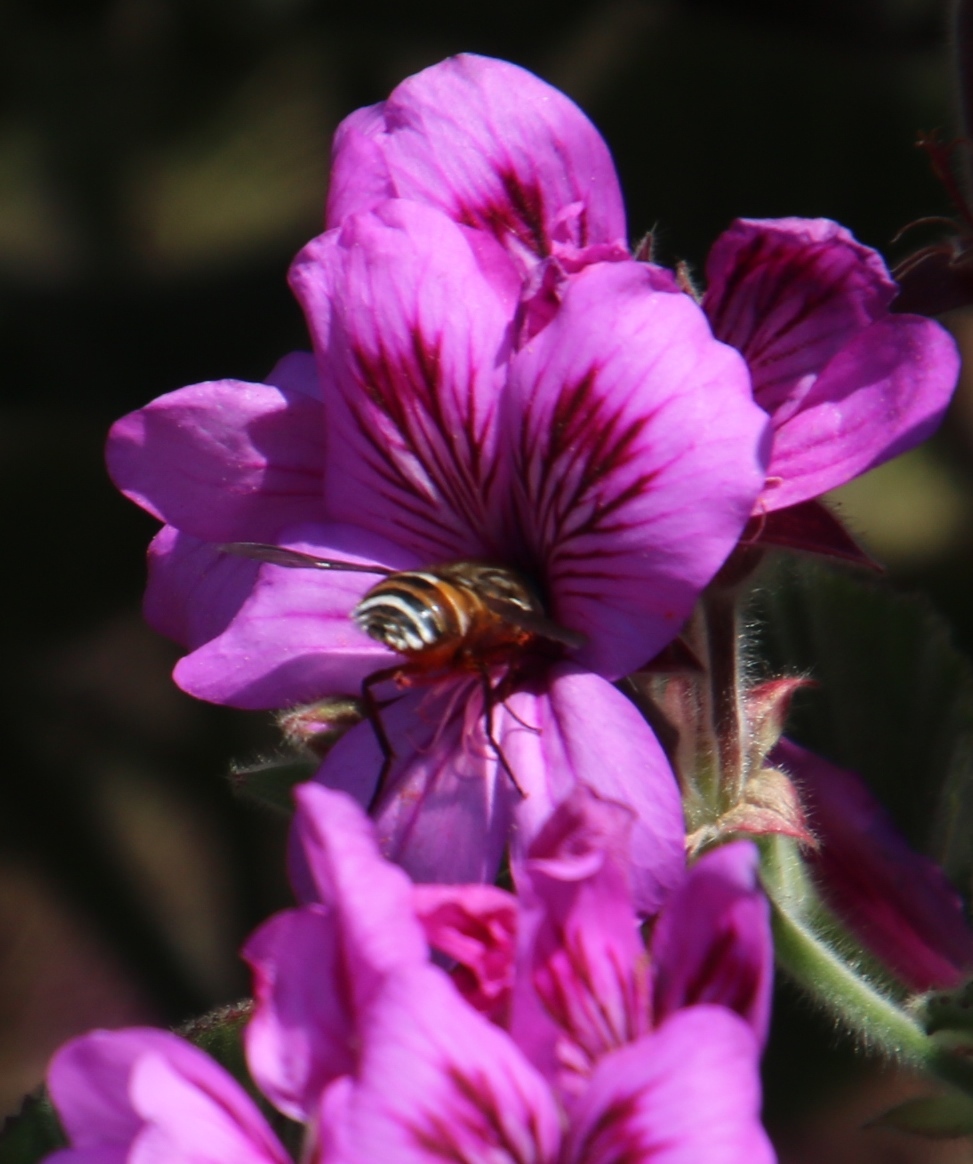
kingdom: Plantae
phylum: Tracheophyta
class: Magnoliopsida
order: Geraniales
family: Geraniaceae
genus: Pelargonium
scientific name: Pelargonium cucullatum
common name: Tree pelargonium
